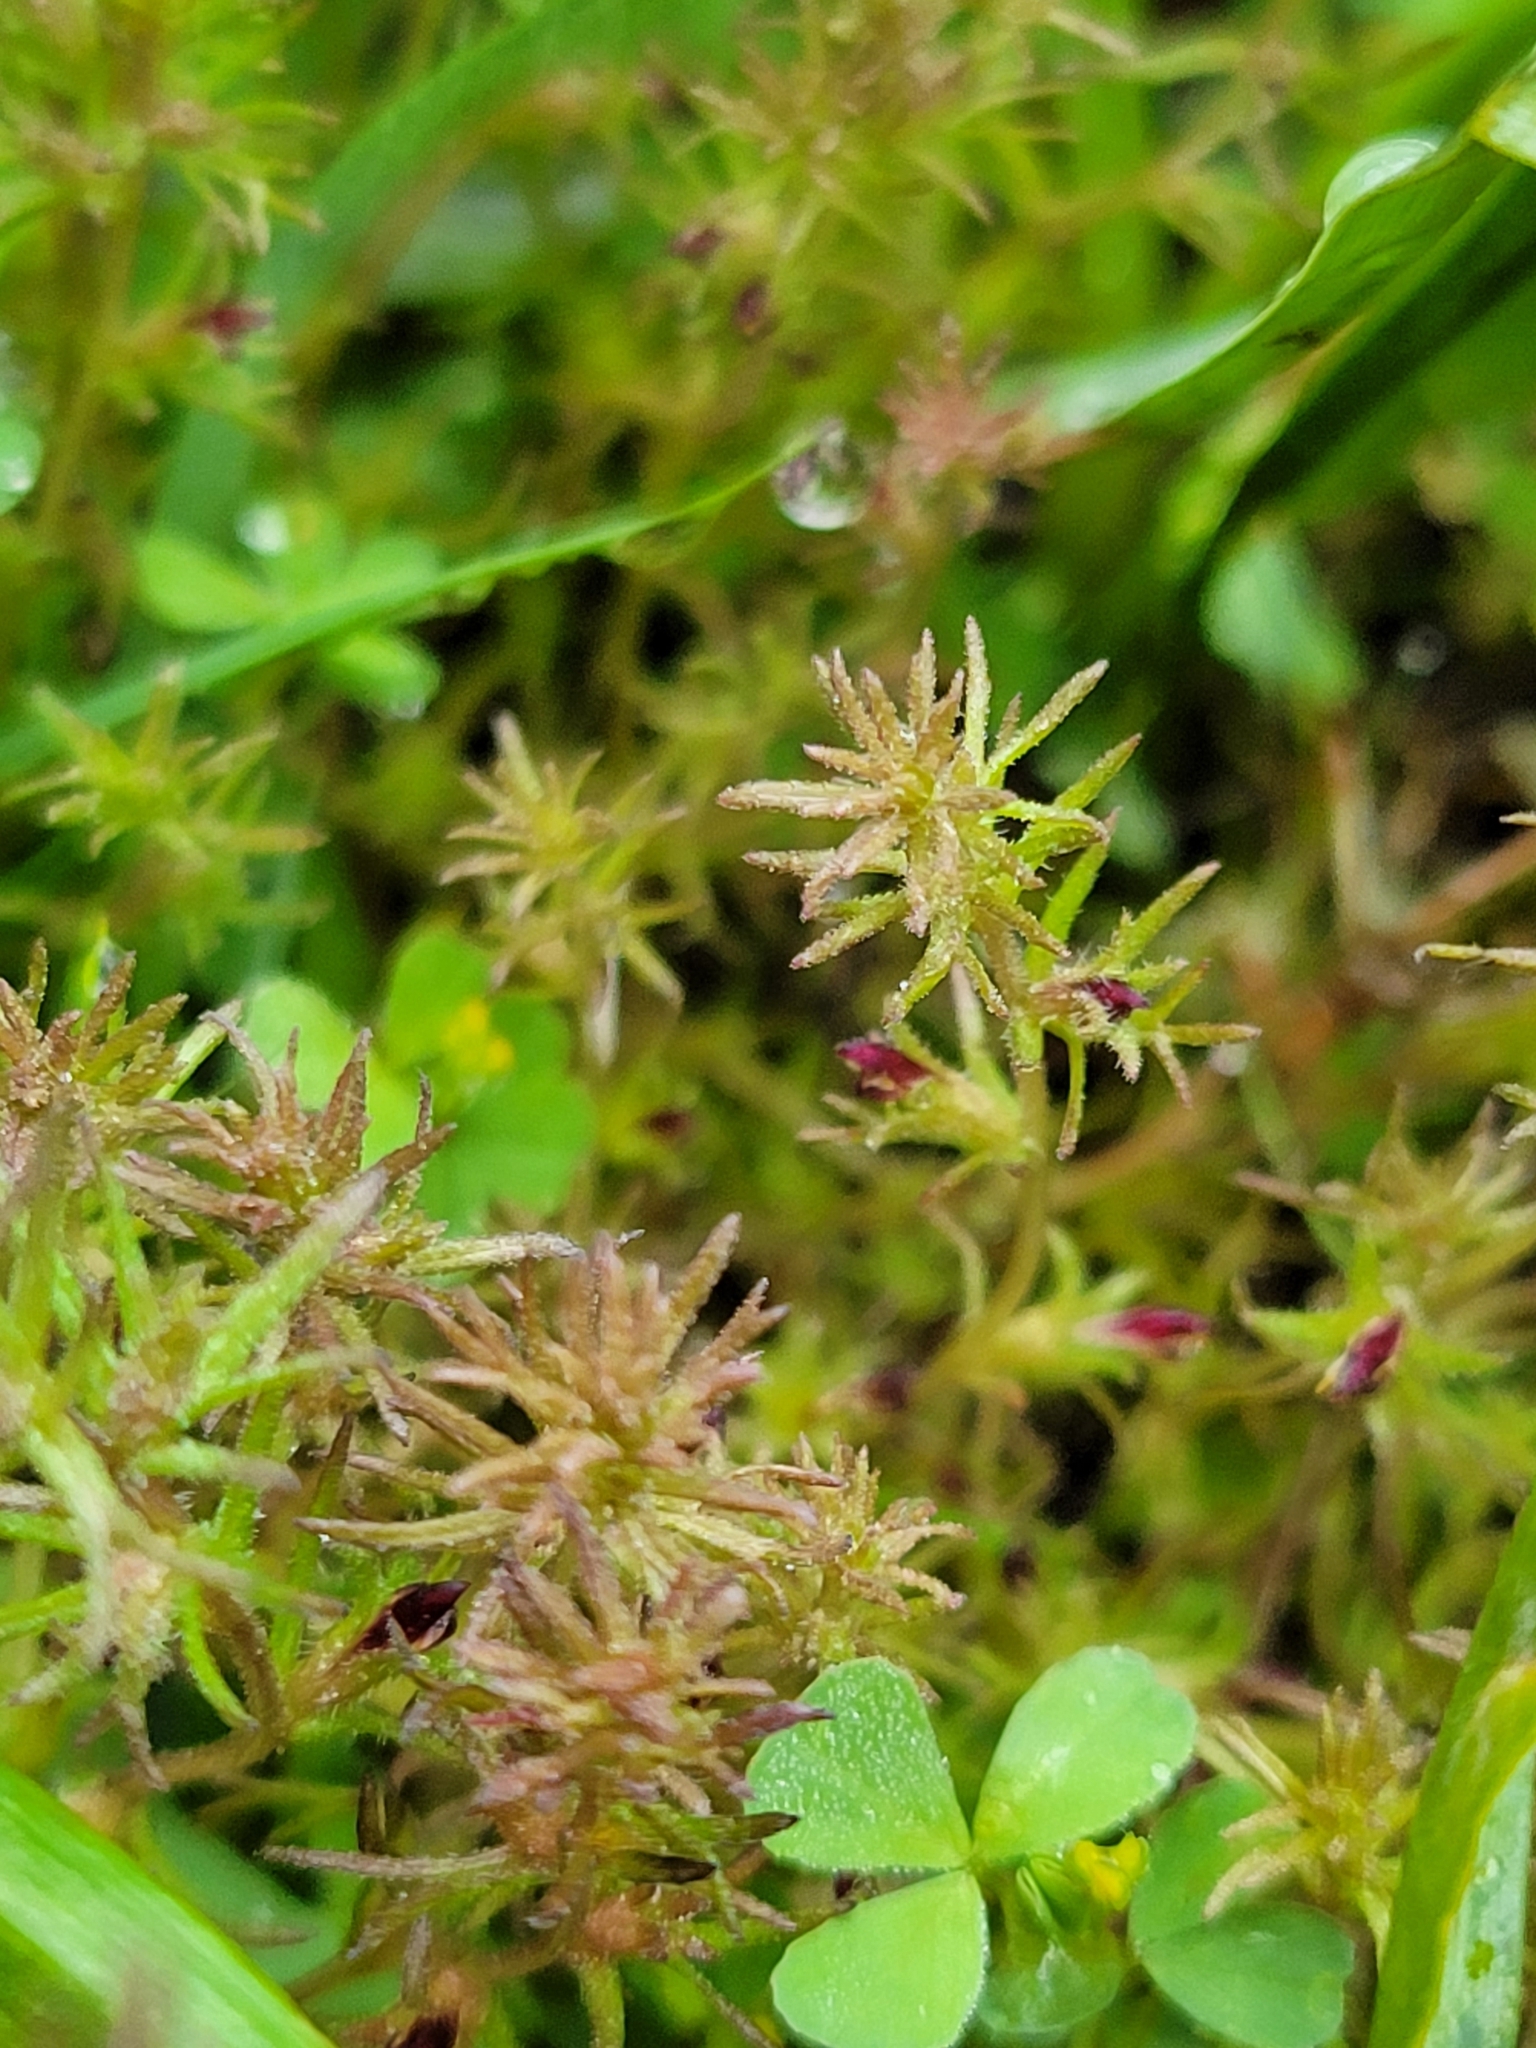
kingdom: Plantae
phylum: Tracheophyta
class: Magnoliopsida
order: Lamiales
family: Orobanchaceae
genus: Triphysaria
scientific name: Triphysaria pusilla
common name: Dwarf false owl-clover
